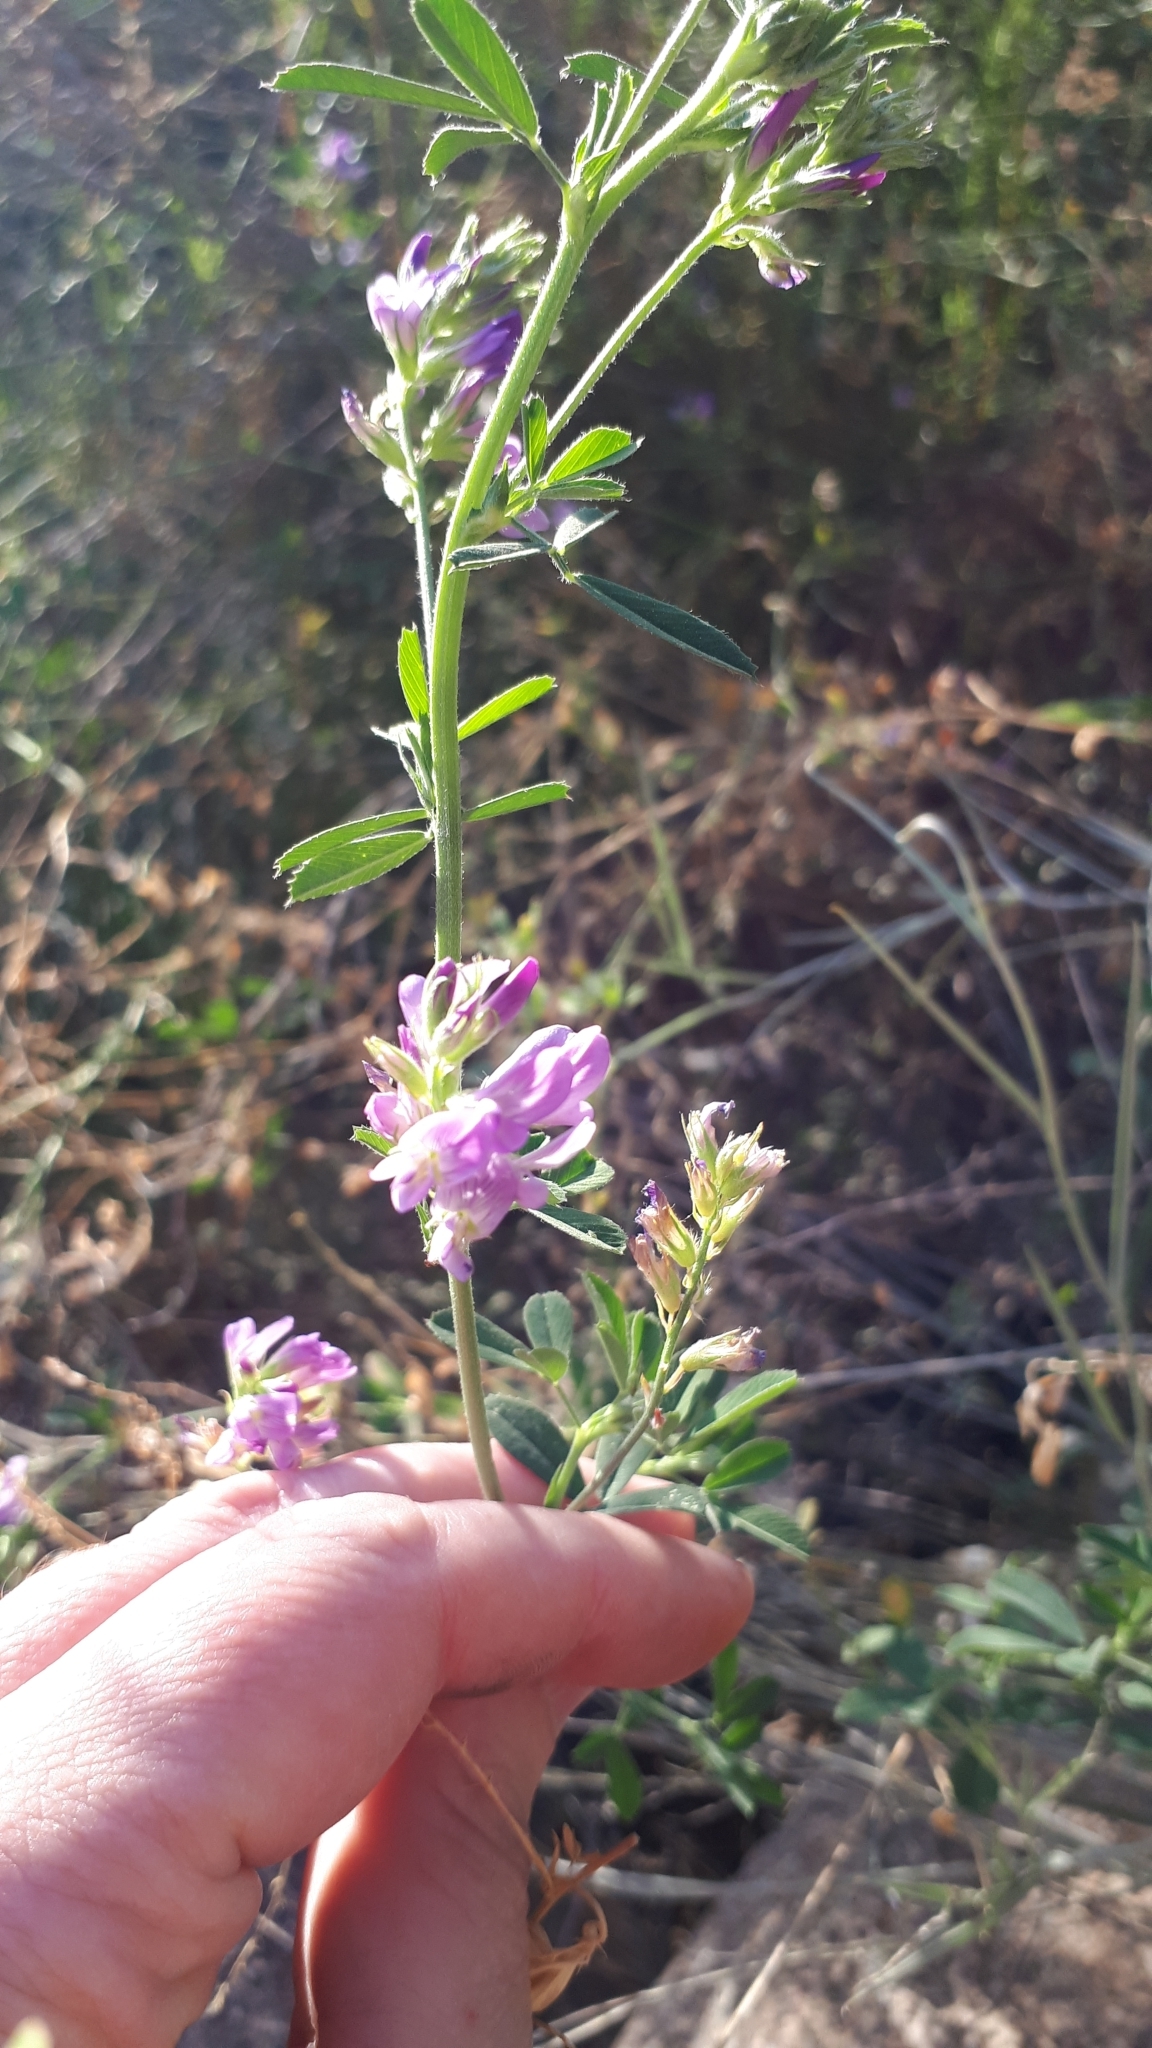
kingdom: Plantae
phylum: Tracheophyta
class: Magnoliopsida
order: Fabales
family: Fabaceae
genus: Medicago
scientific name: Medicago sativa
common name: Alfalfa
